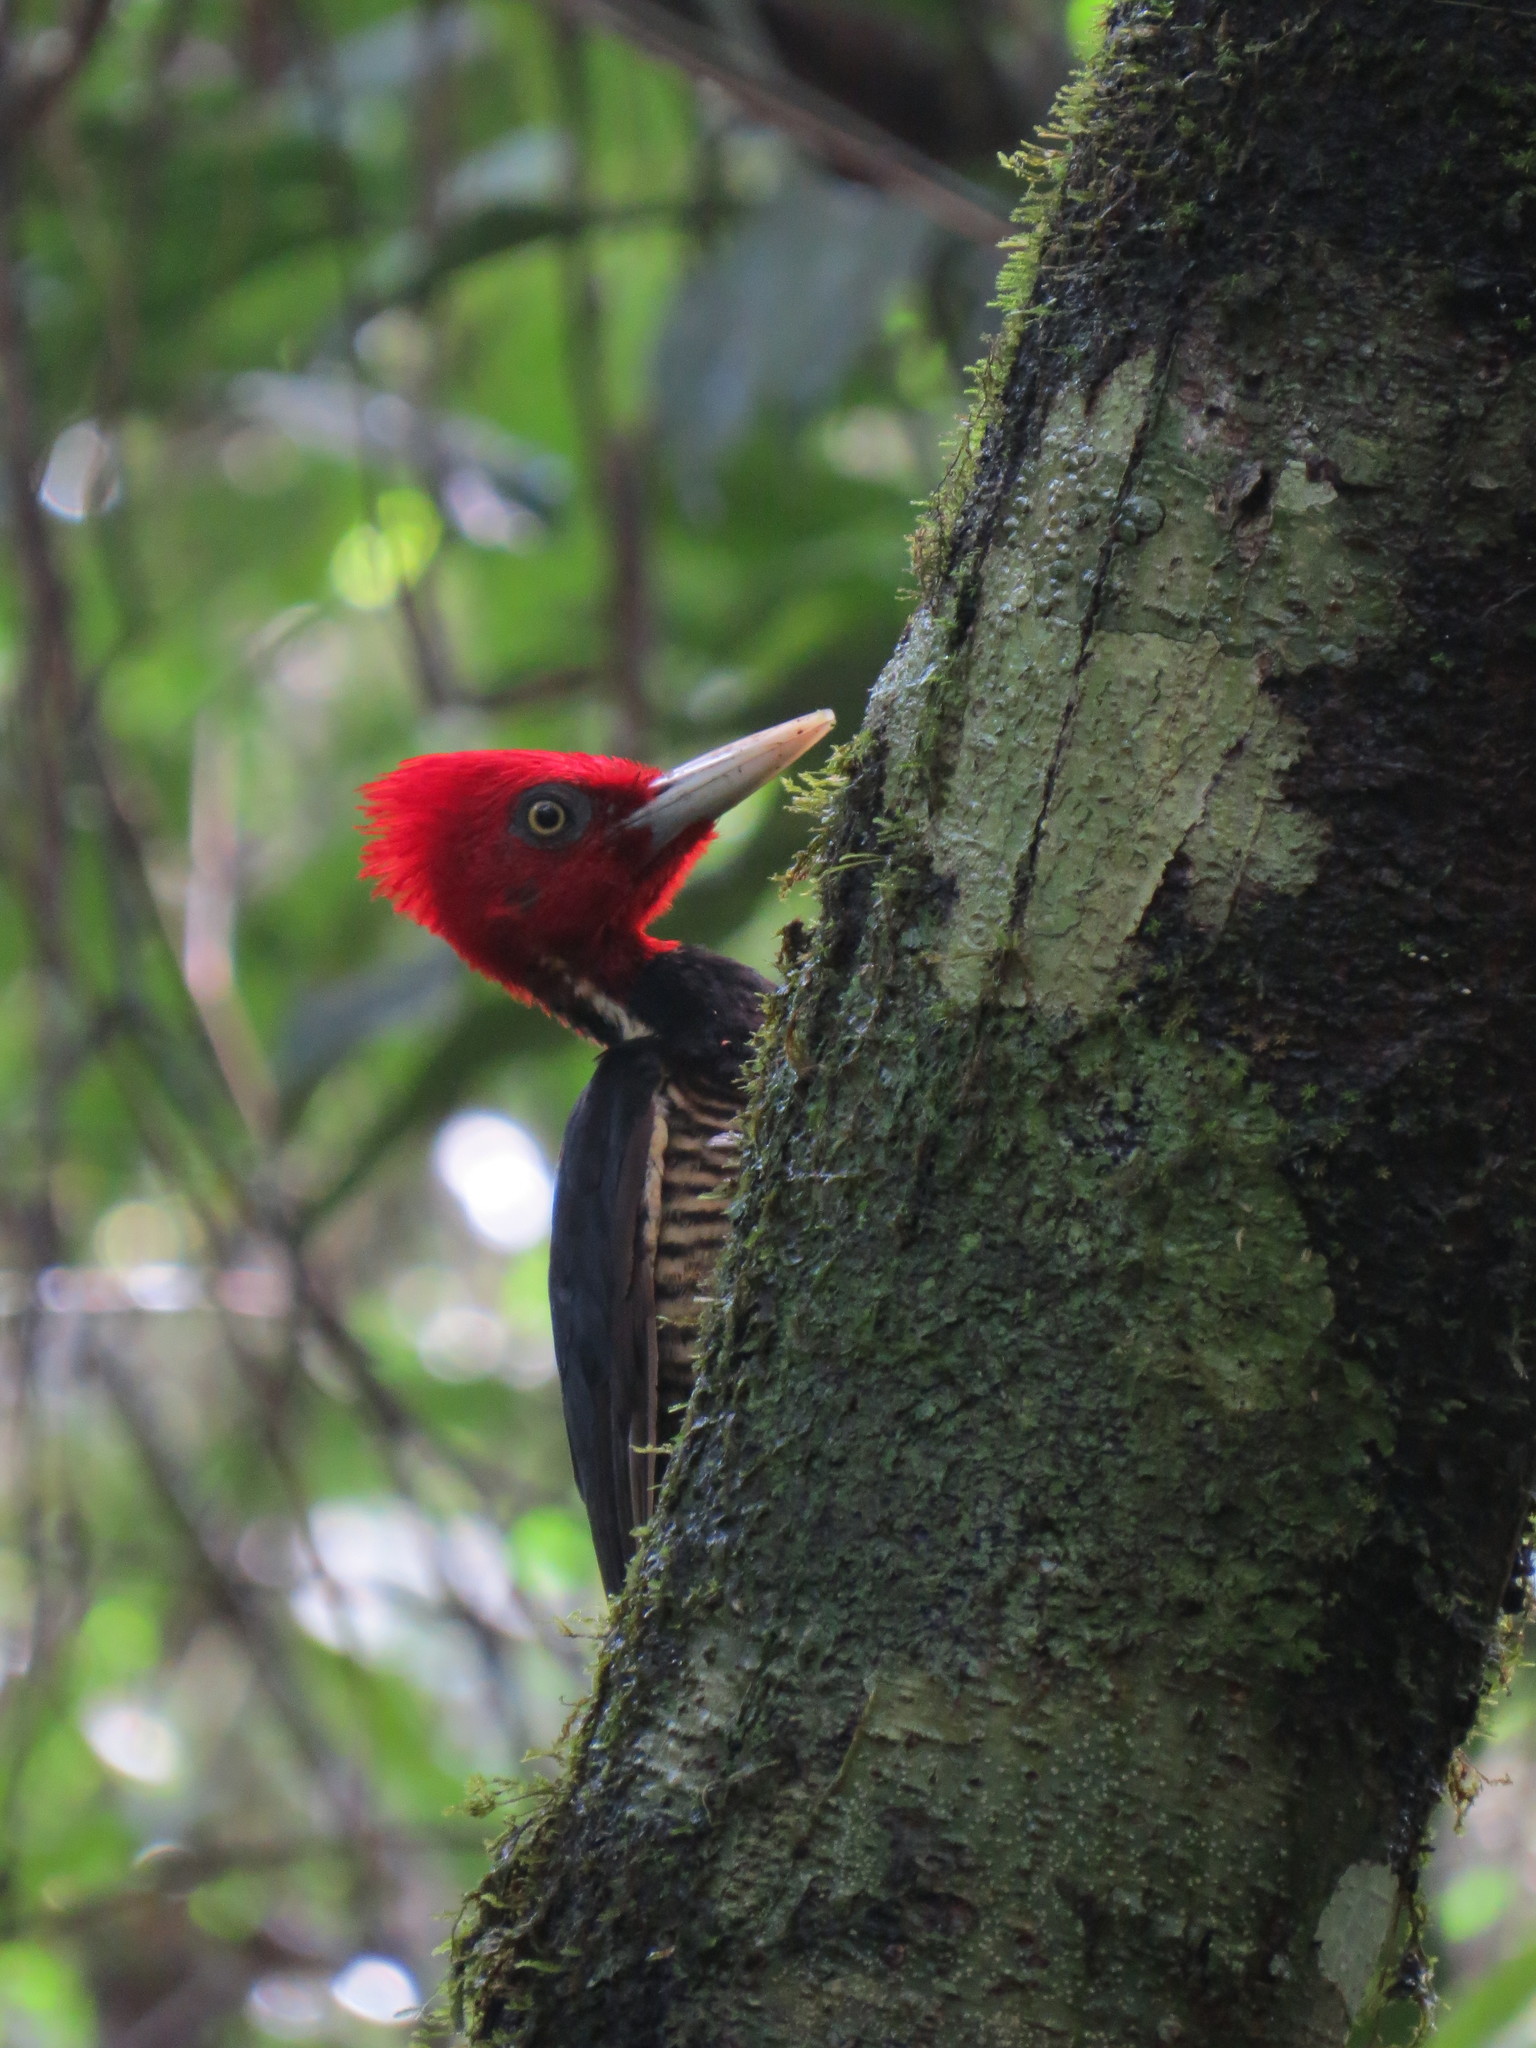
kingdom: Animalia
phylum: Chordata
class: Aves
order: Piciformes
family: Picidae
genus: Campephilus
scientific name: Campephilus guatemalensis
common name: Pale-billed woodpecker
